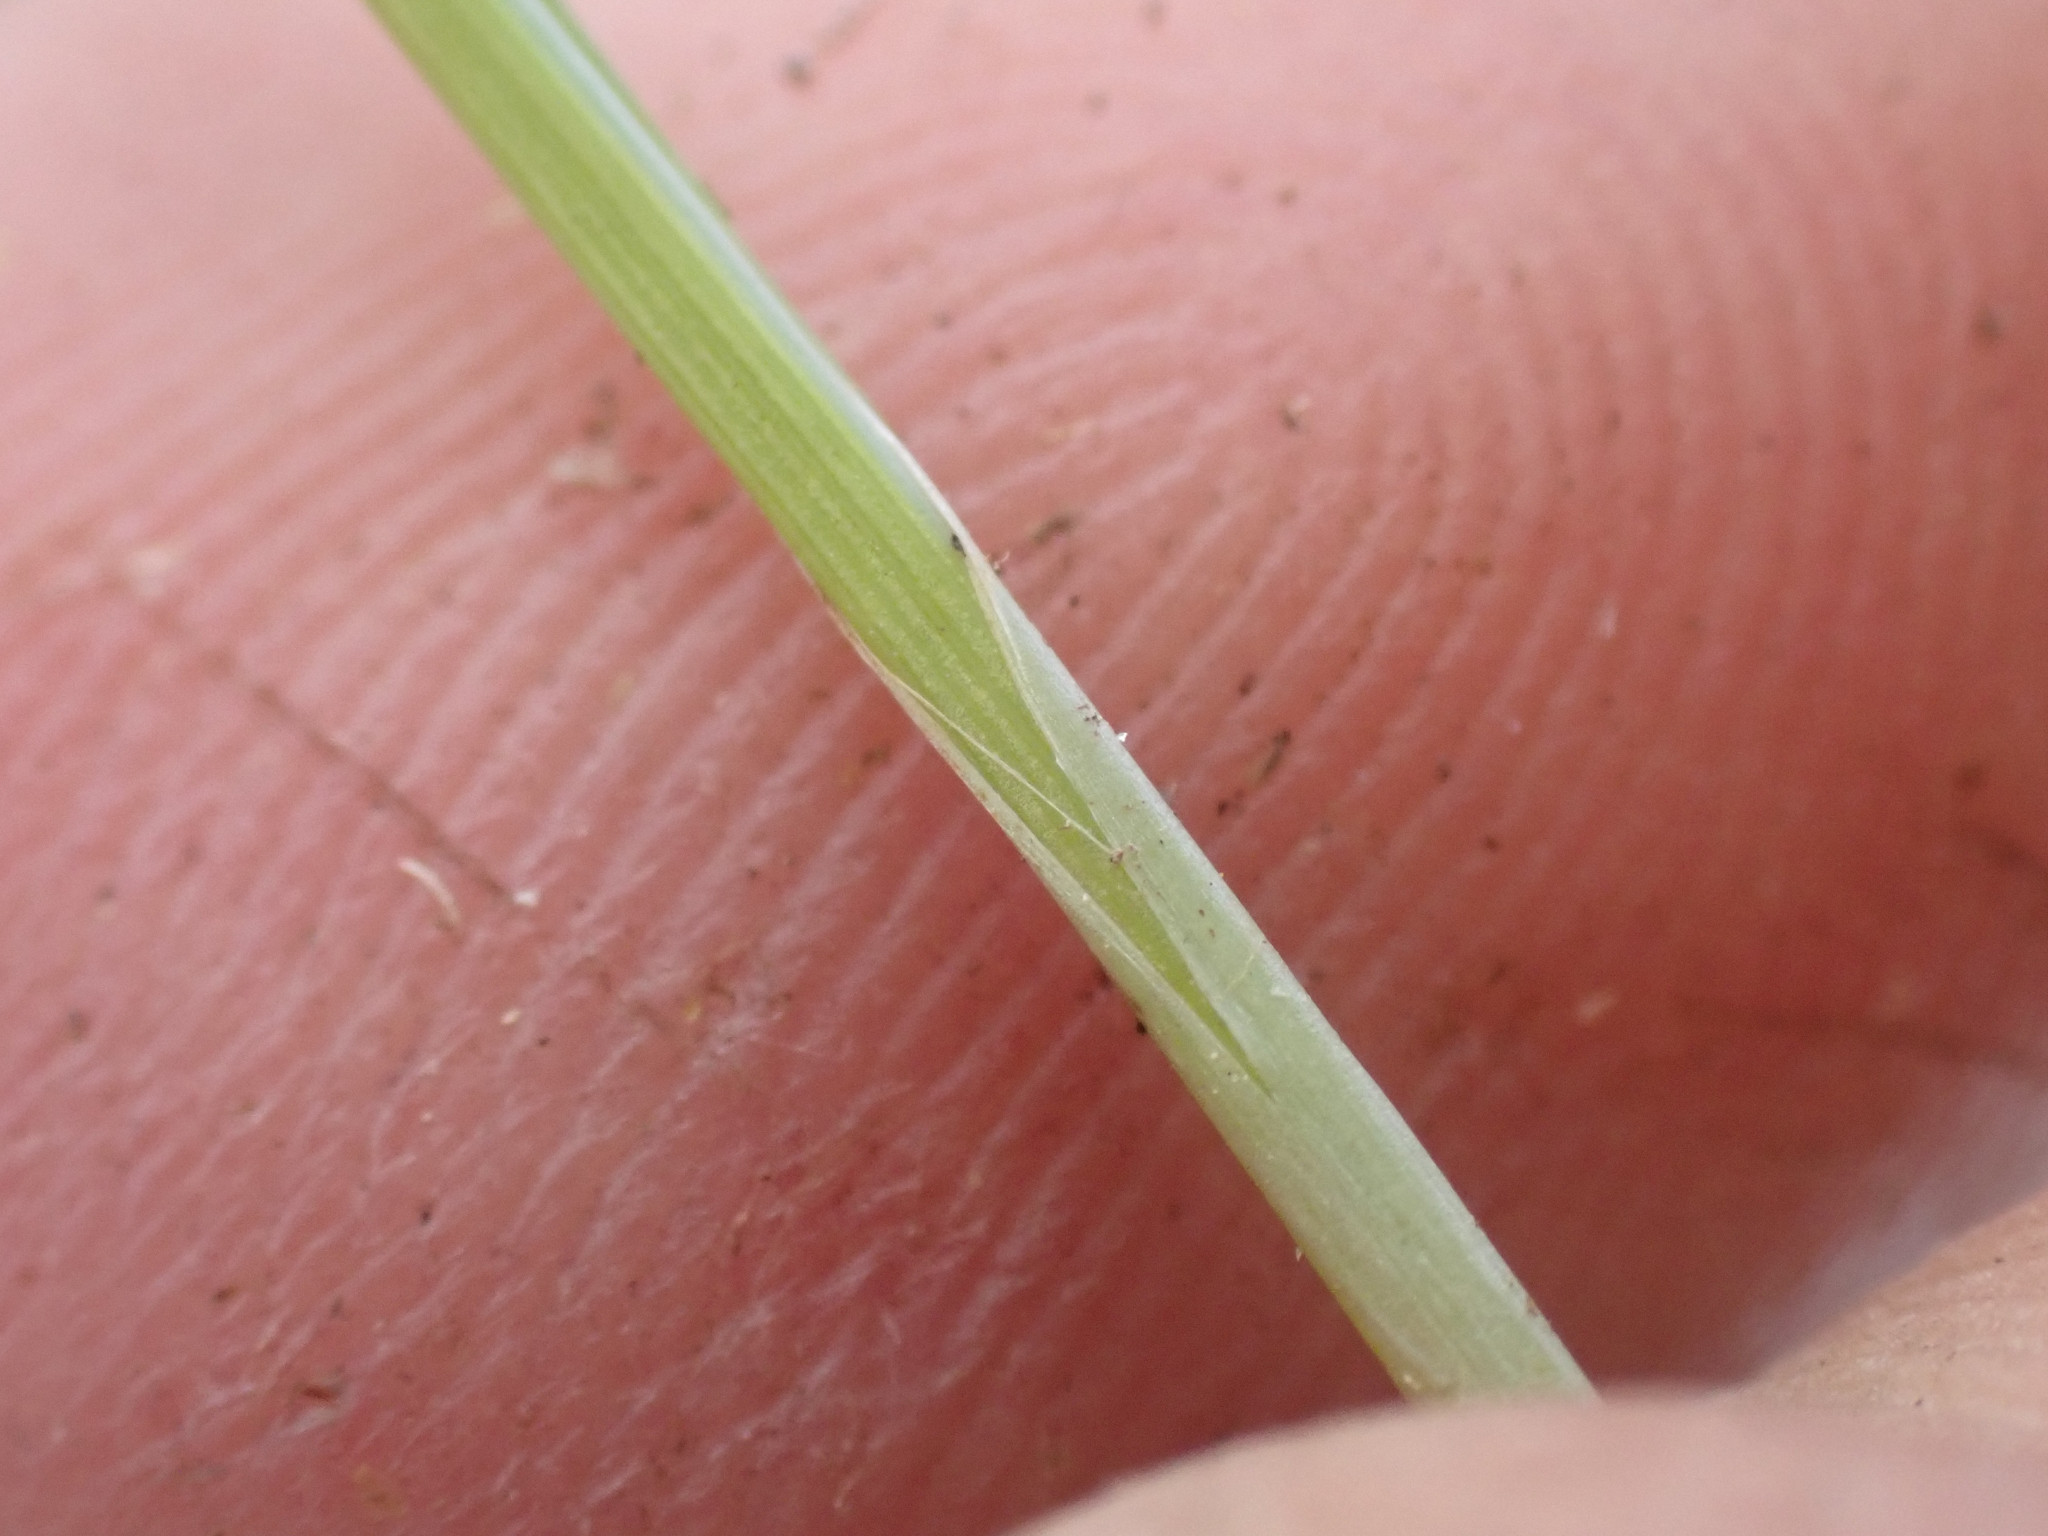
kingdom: Plantae
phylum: Tracheophyta
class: Liliopsida
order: Poales
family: Cyperaceae
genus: Carex
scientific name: Carex limosa
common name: Bog sedge
